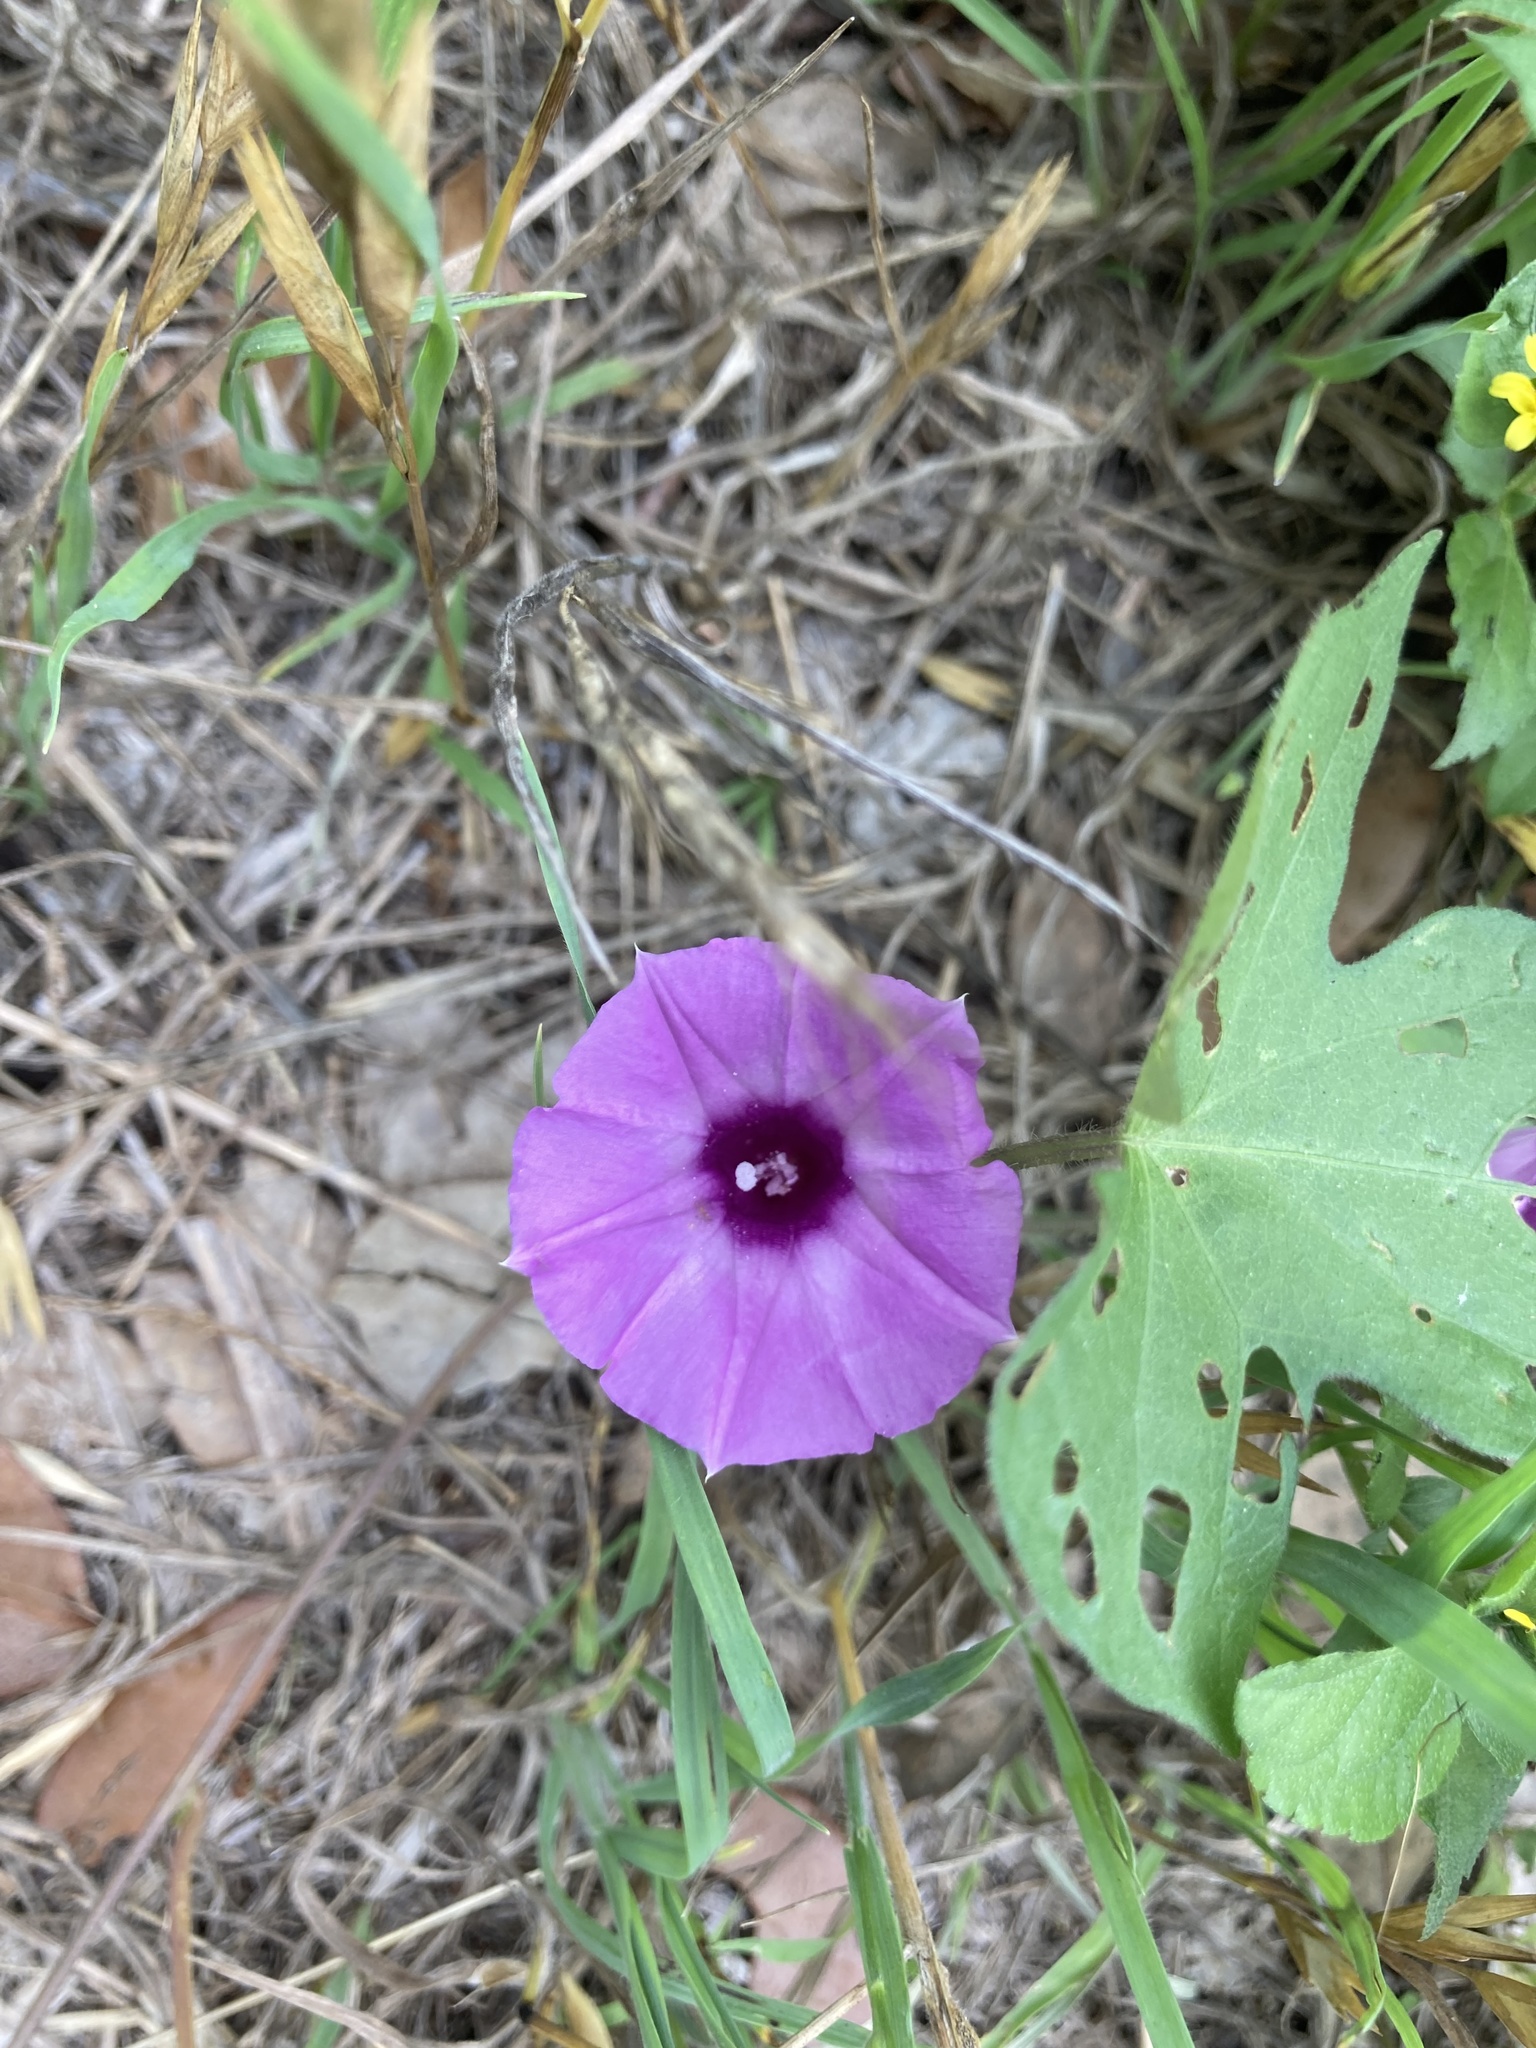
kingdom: Plantae
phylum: Tracheophyta
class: Magnoliopsida
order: Solanales
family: Convolvulaceae
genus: Ipomoea
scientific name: Ipomoea cordatotriloba
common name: Cotton morning glory
